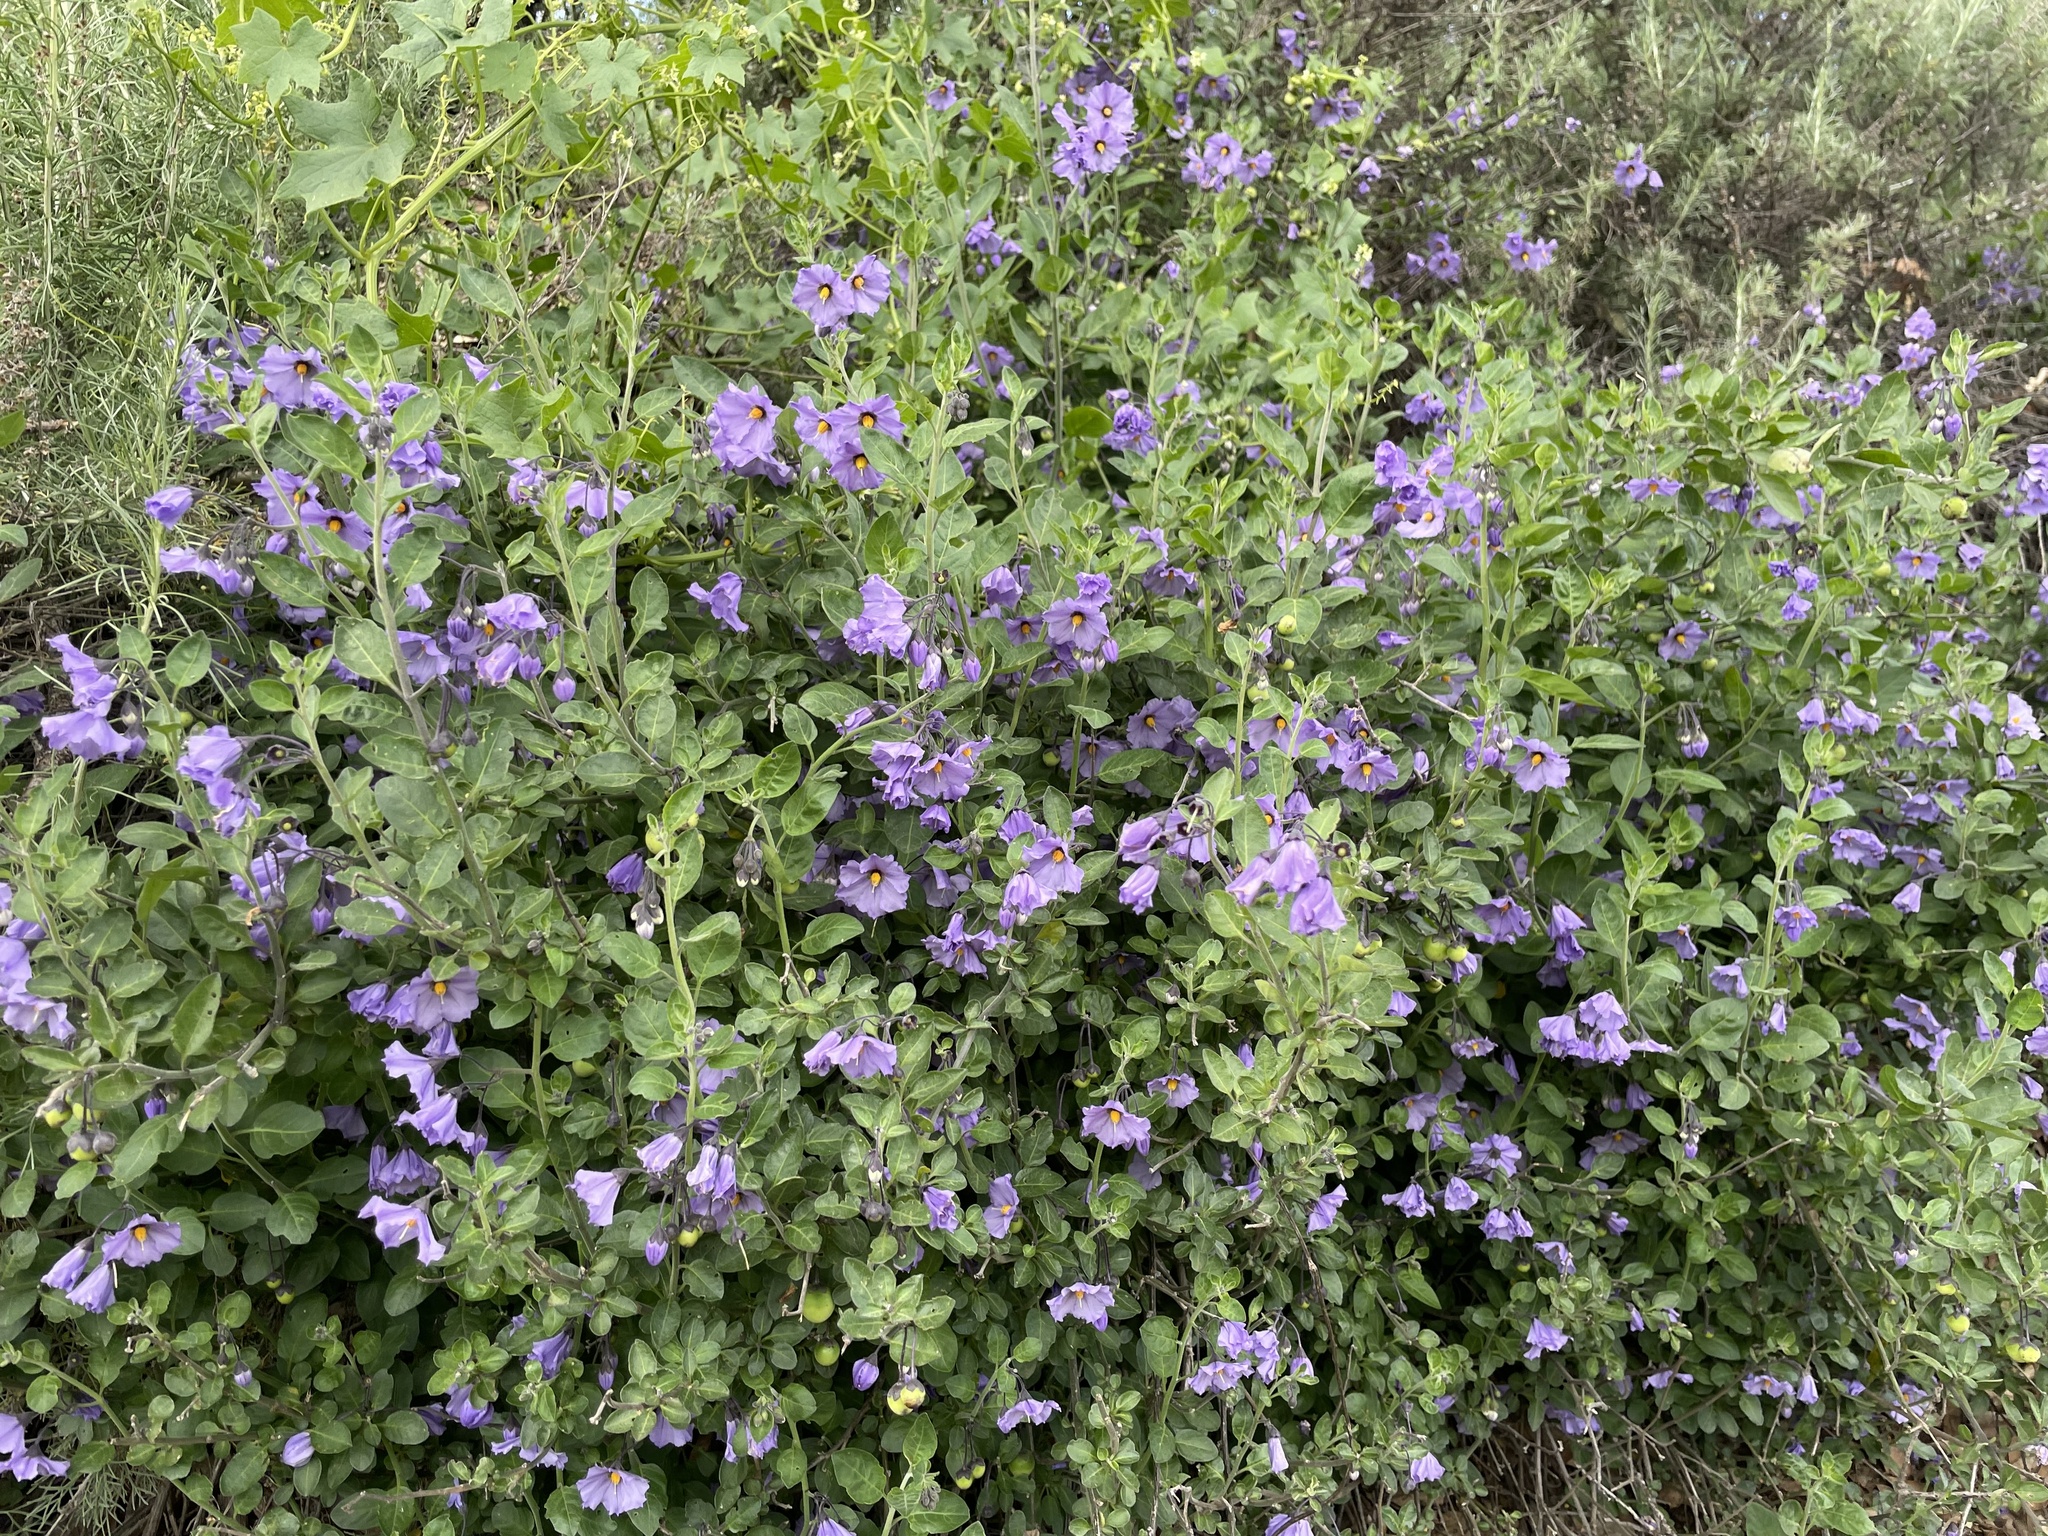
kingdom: Plantae
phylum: Tracheophyta
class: Magnoliopsida
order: Solanales
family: Solanaceae
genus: Solanum
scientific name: Solanum umbelliferum
